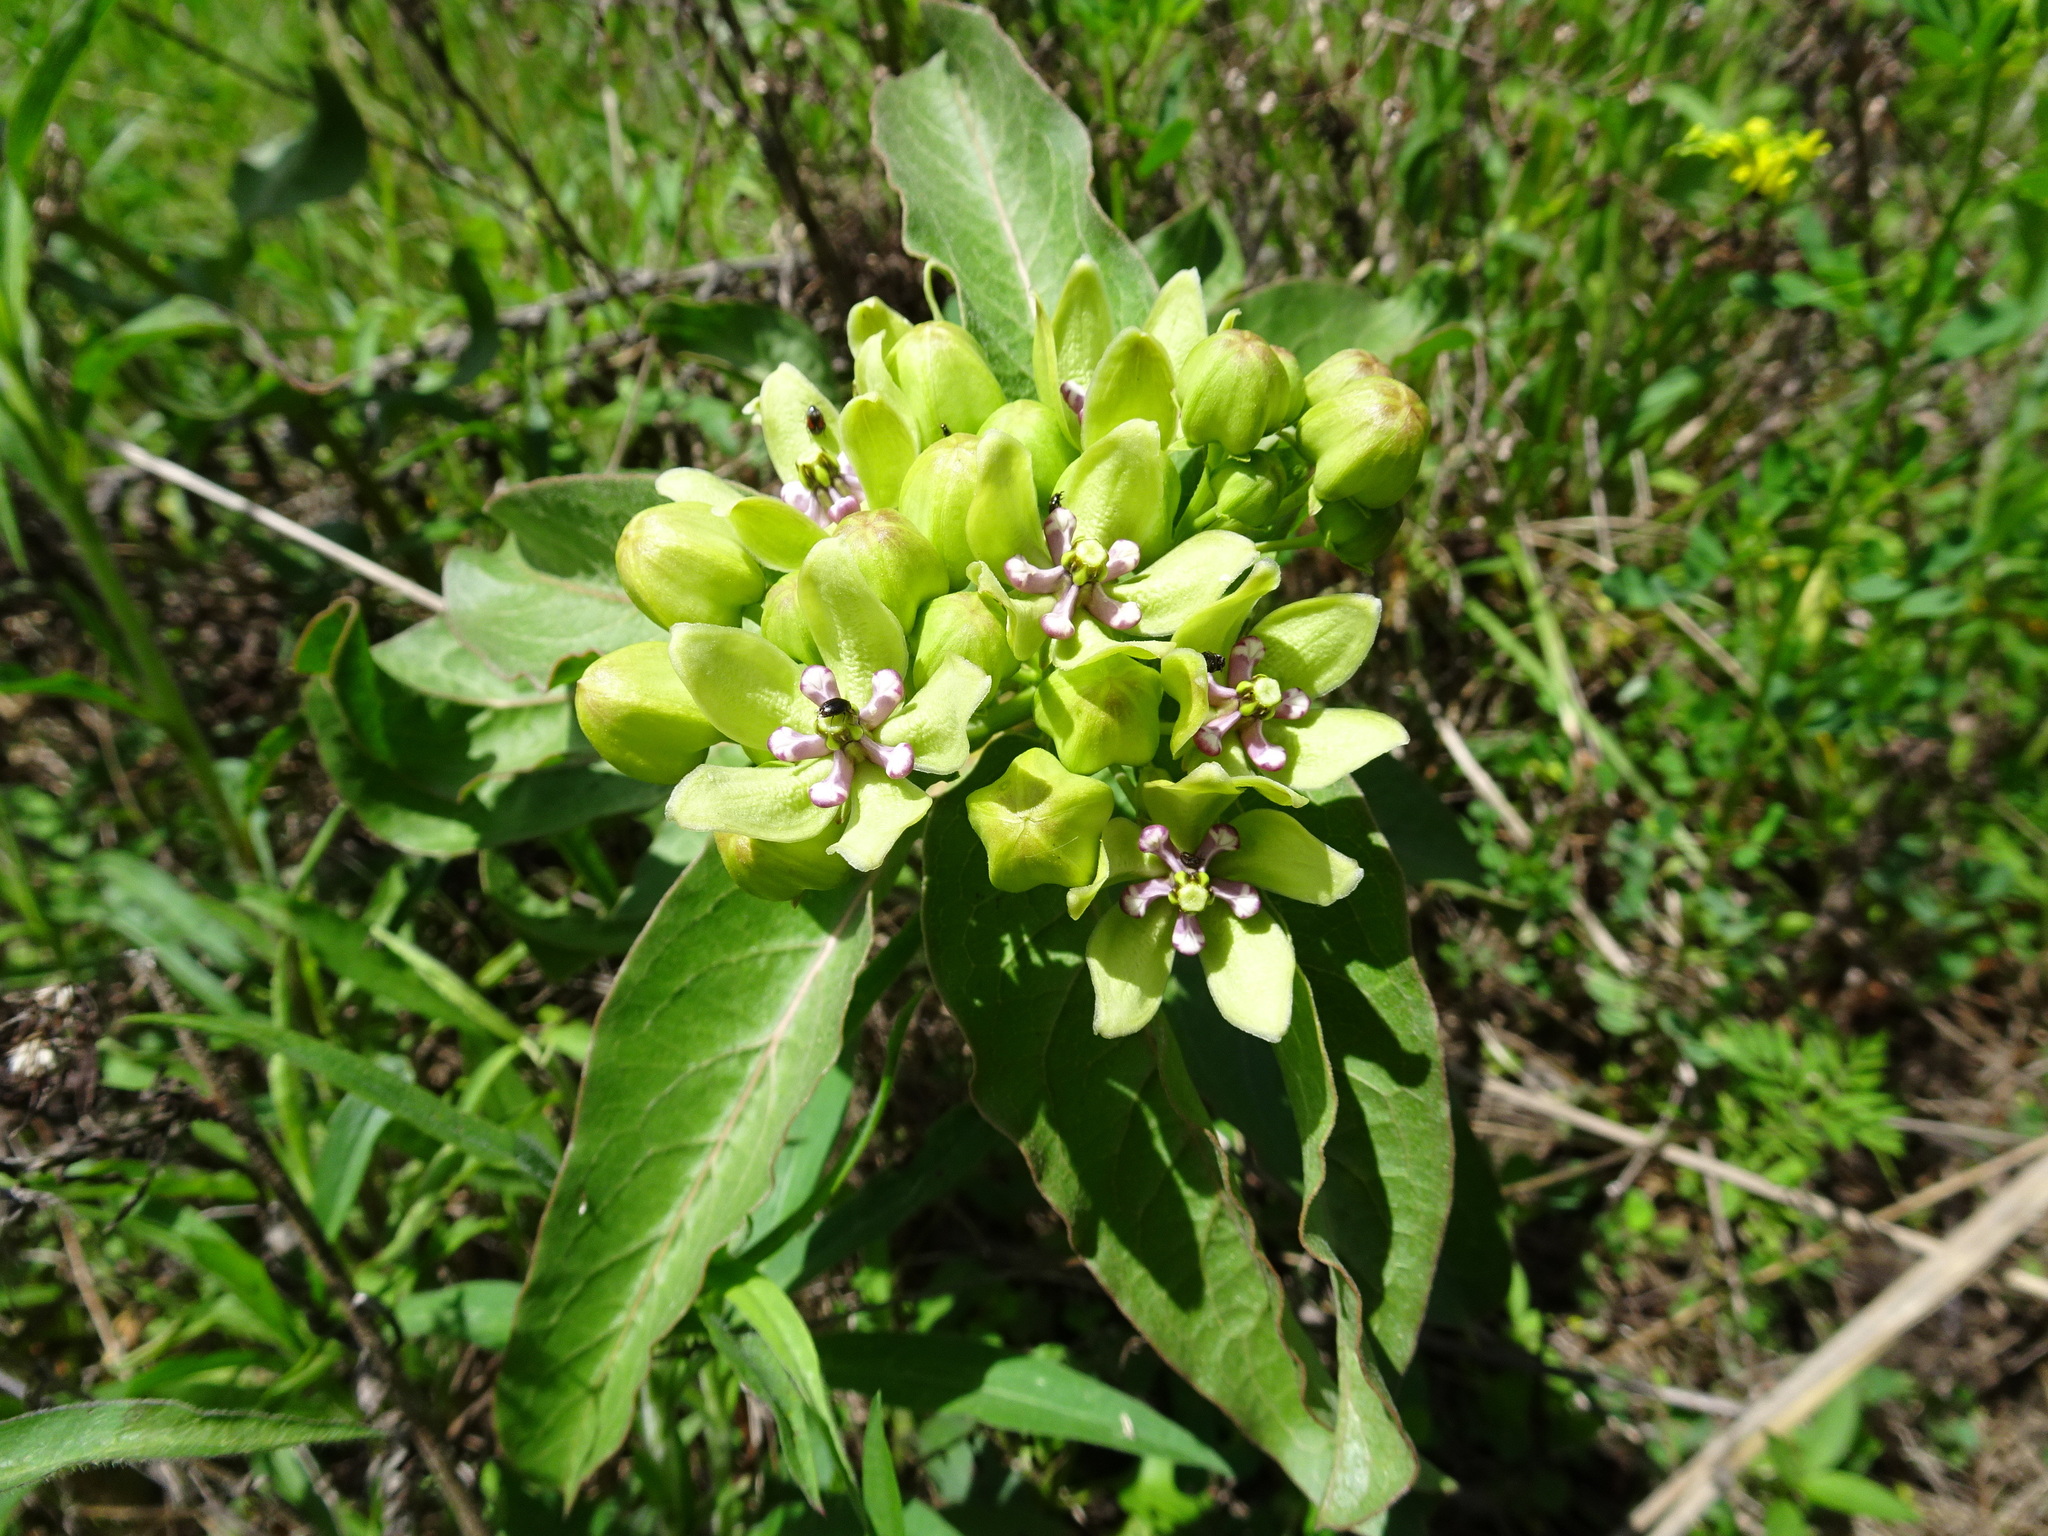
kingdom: Plantae
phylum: Tracheophyta
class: Magnoliopsida
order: Gentianales
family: Apocynaceae
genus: Asclepias
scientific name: Asclepias viridis
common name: Antelope-horns
